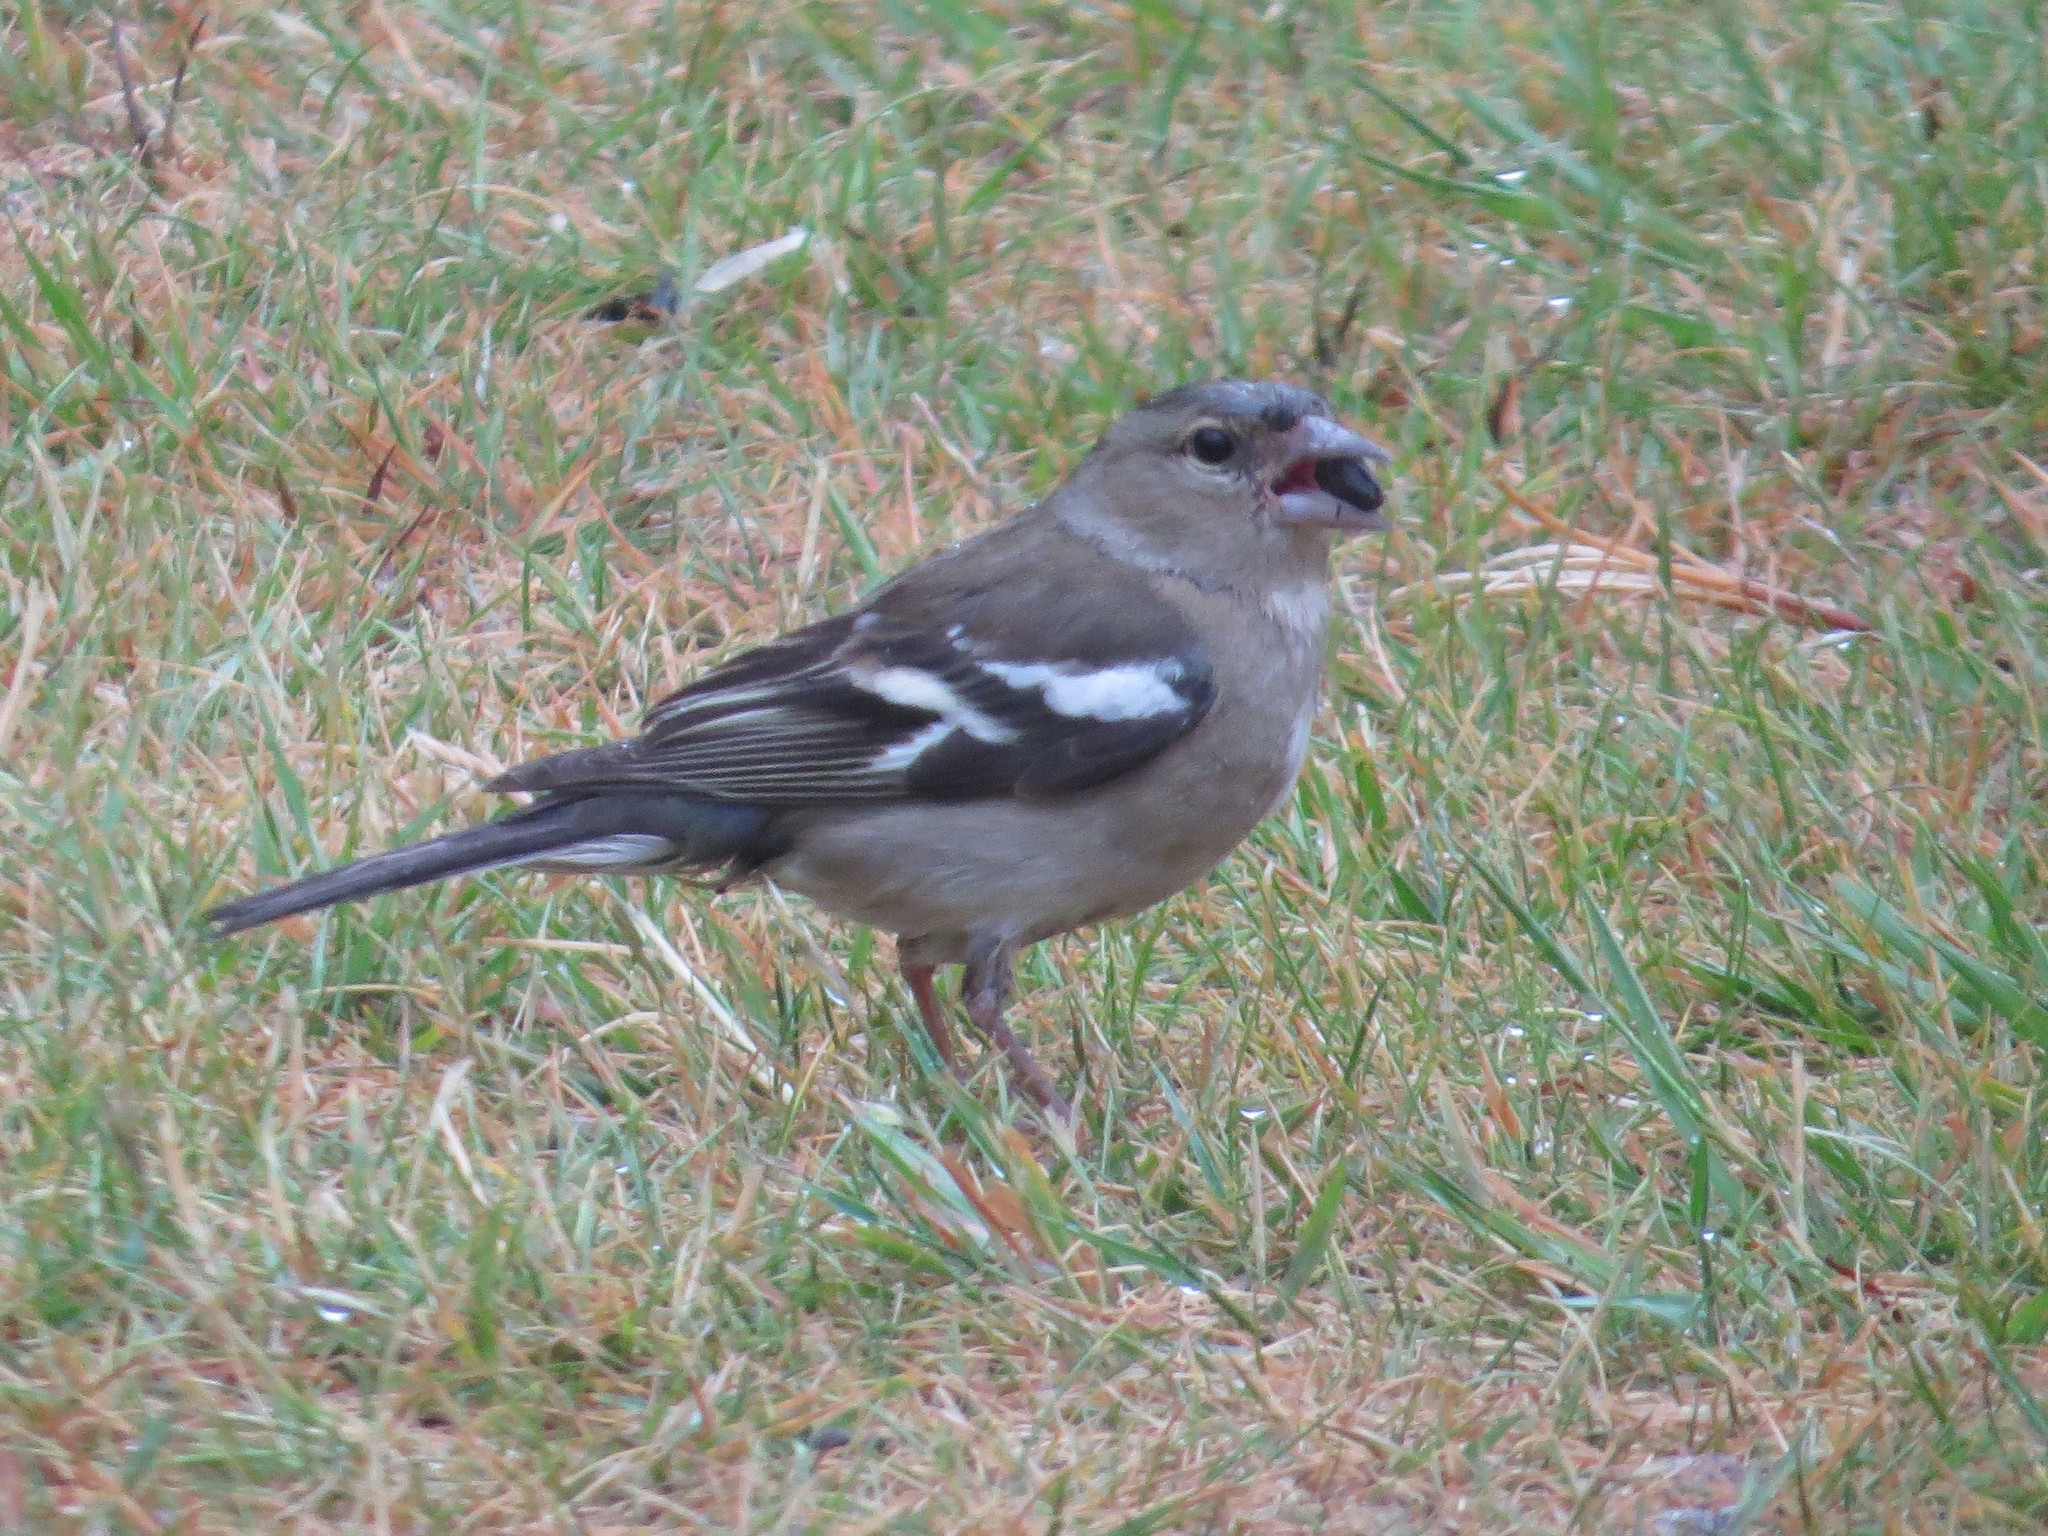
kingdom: Animalia
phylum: Chordata
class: Aves
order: Passeriformes
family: Fringillidae
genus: Fringilla
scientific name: Fringilla coelebs
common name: Common chaffinch
